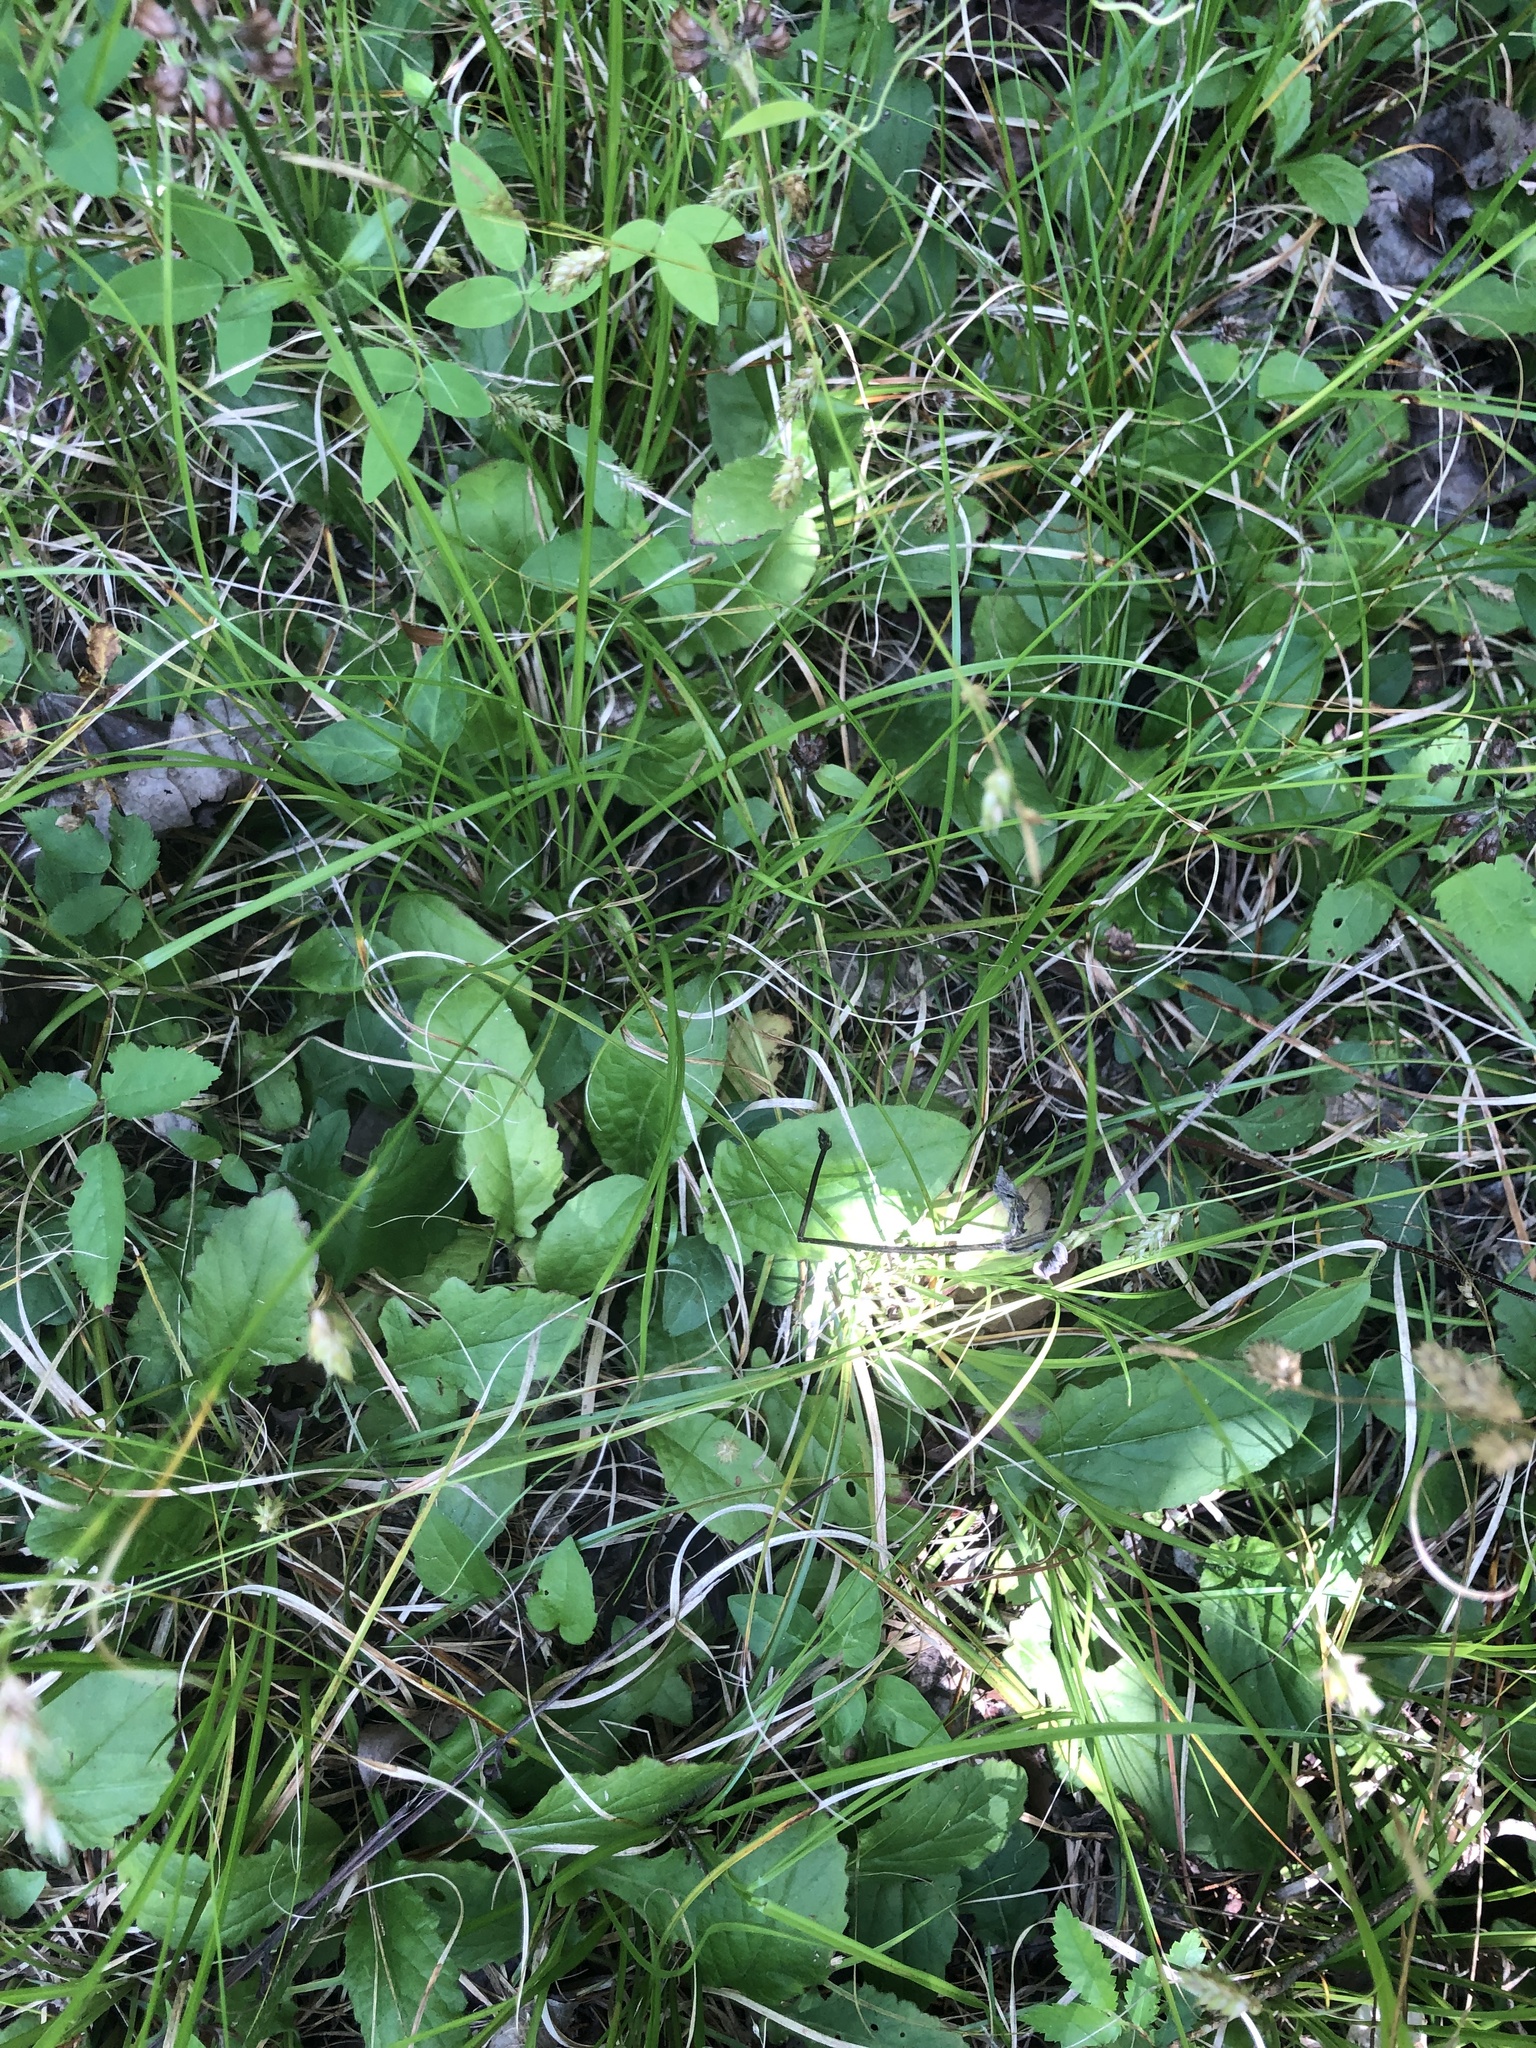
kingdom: Plantae
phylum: Tracheophyta
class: Magnoliopsida
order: Lamiales
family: Lamiaceae
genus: Salvia
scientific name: Salvia lyrata
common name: Cancerweed
